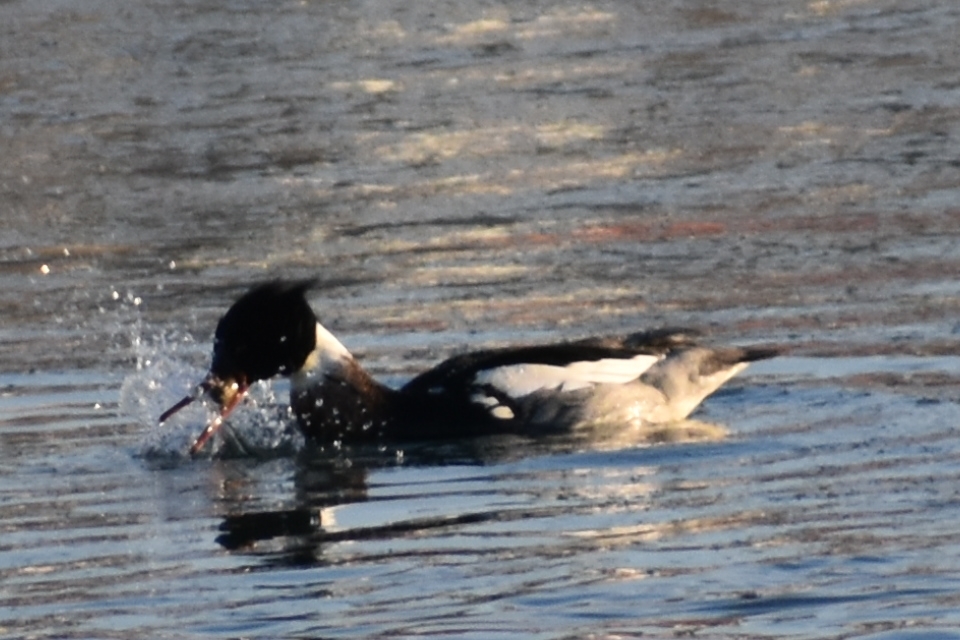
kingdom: Animalia
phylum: Chordata
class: Aves
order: Anseriformes
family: Anatidae
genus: Mergus
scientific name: Mergus serrator
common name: Red-breasted merganser
